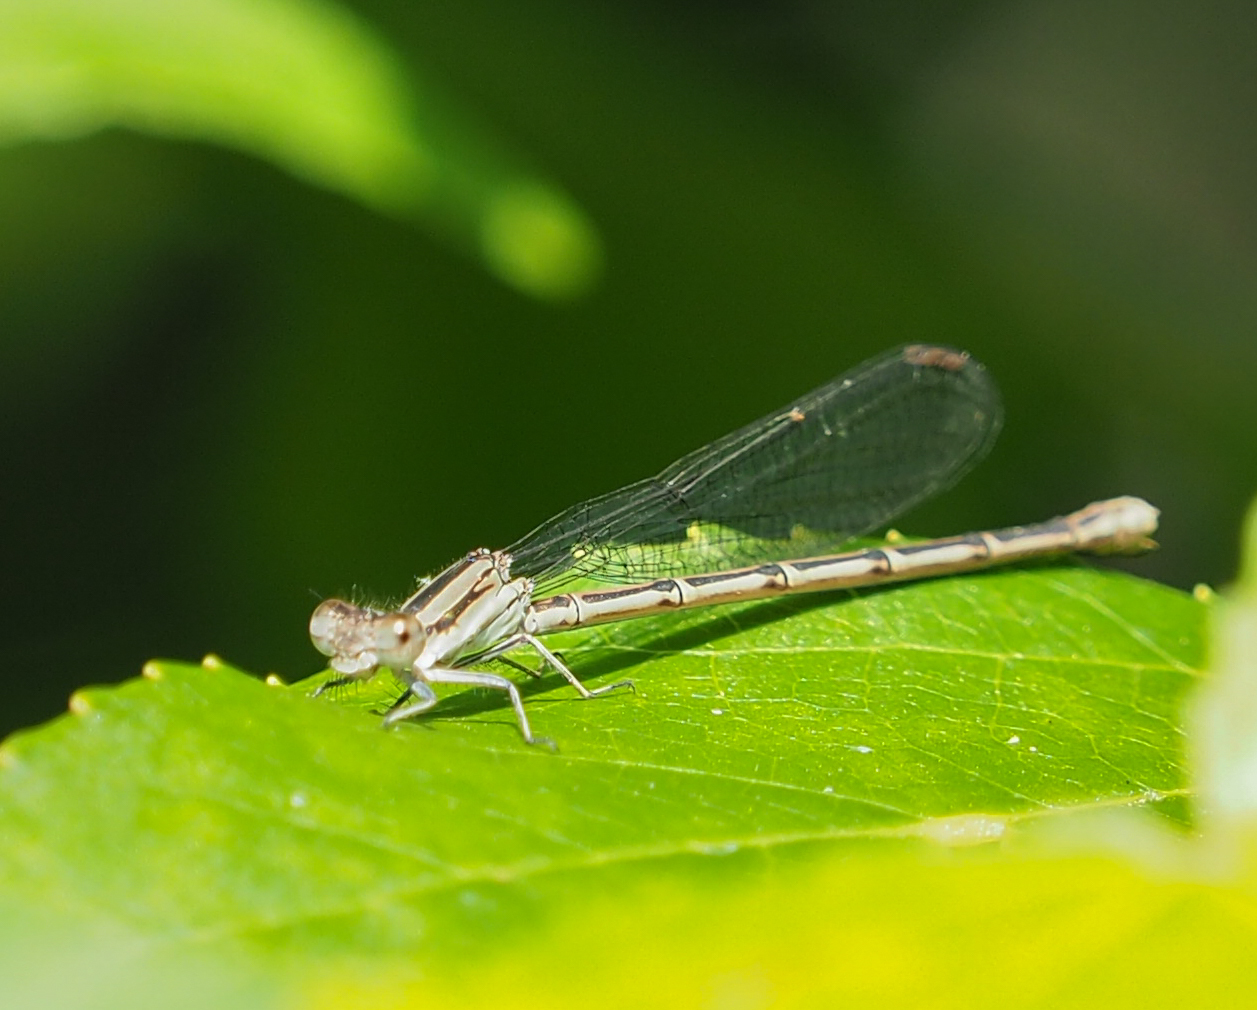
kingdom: Animalia
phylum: Arthropoda
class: Insecta
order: Odonata
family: Coenagrionidae
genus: Argia
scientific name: Argia fumipennis
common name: Variable dancer
